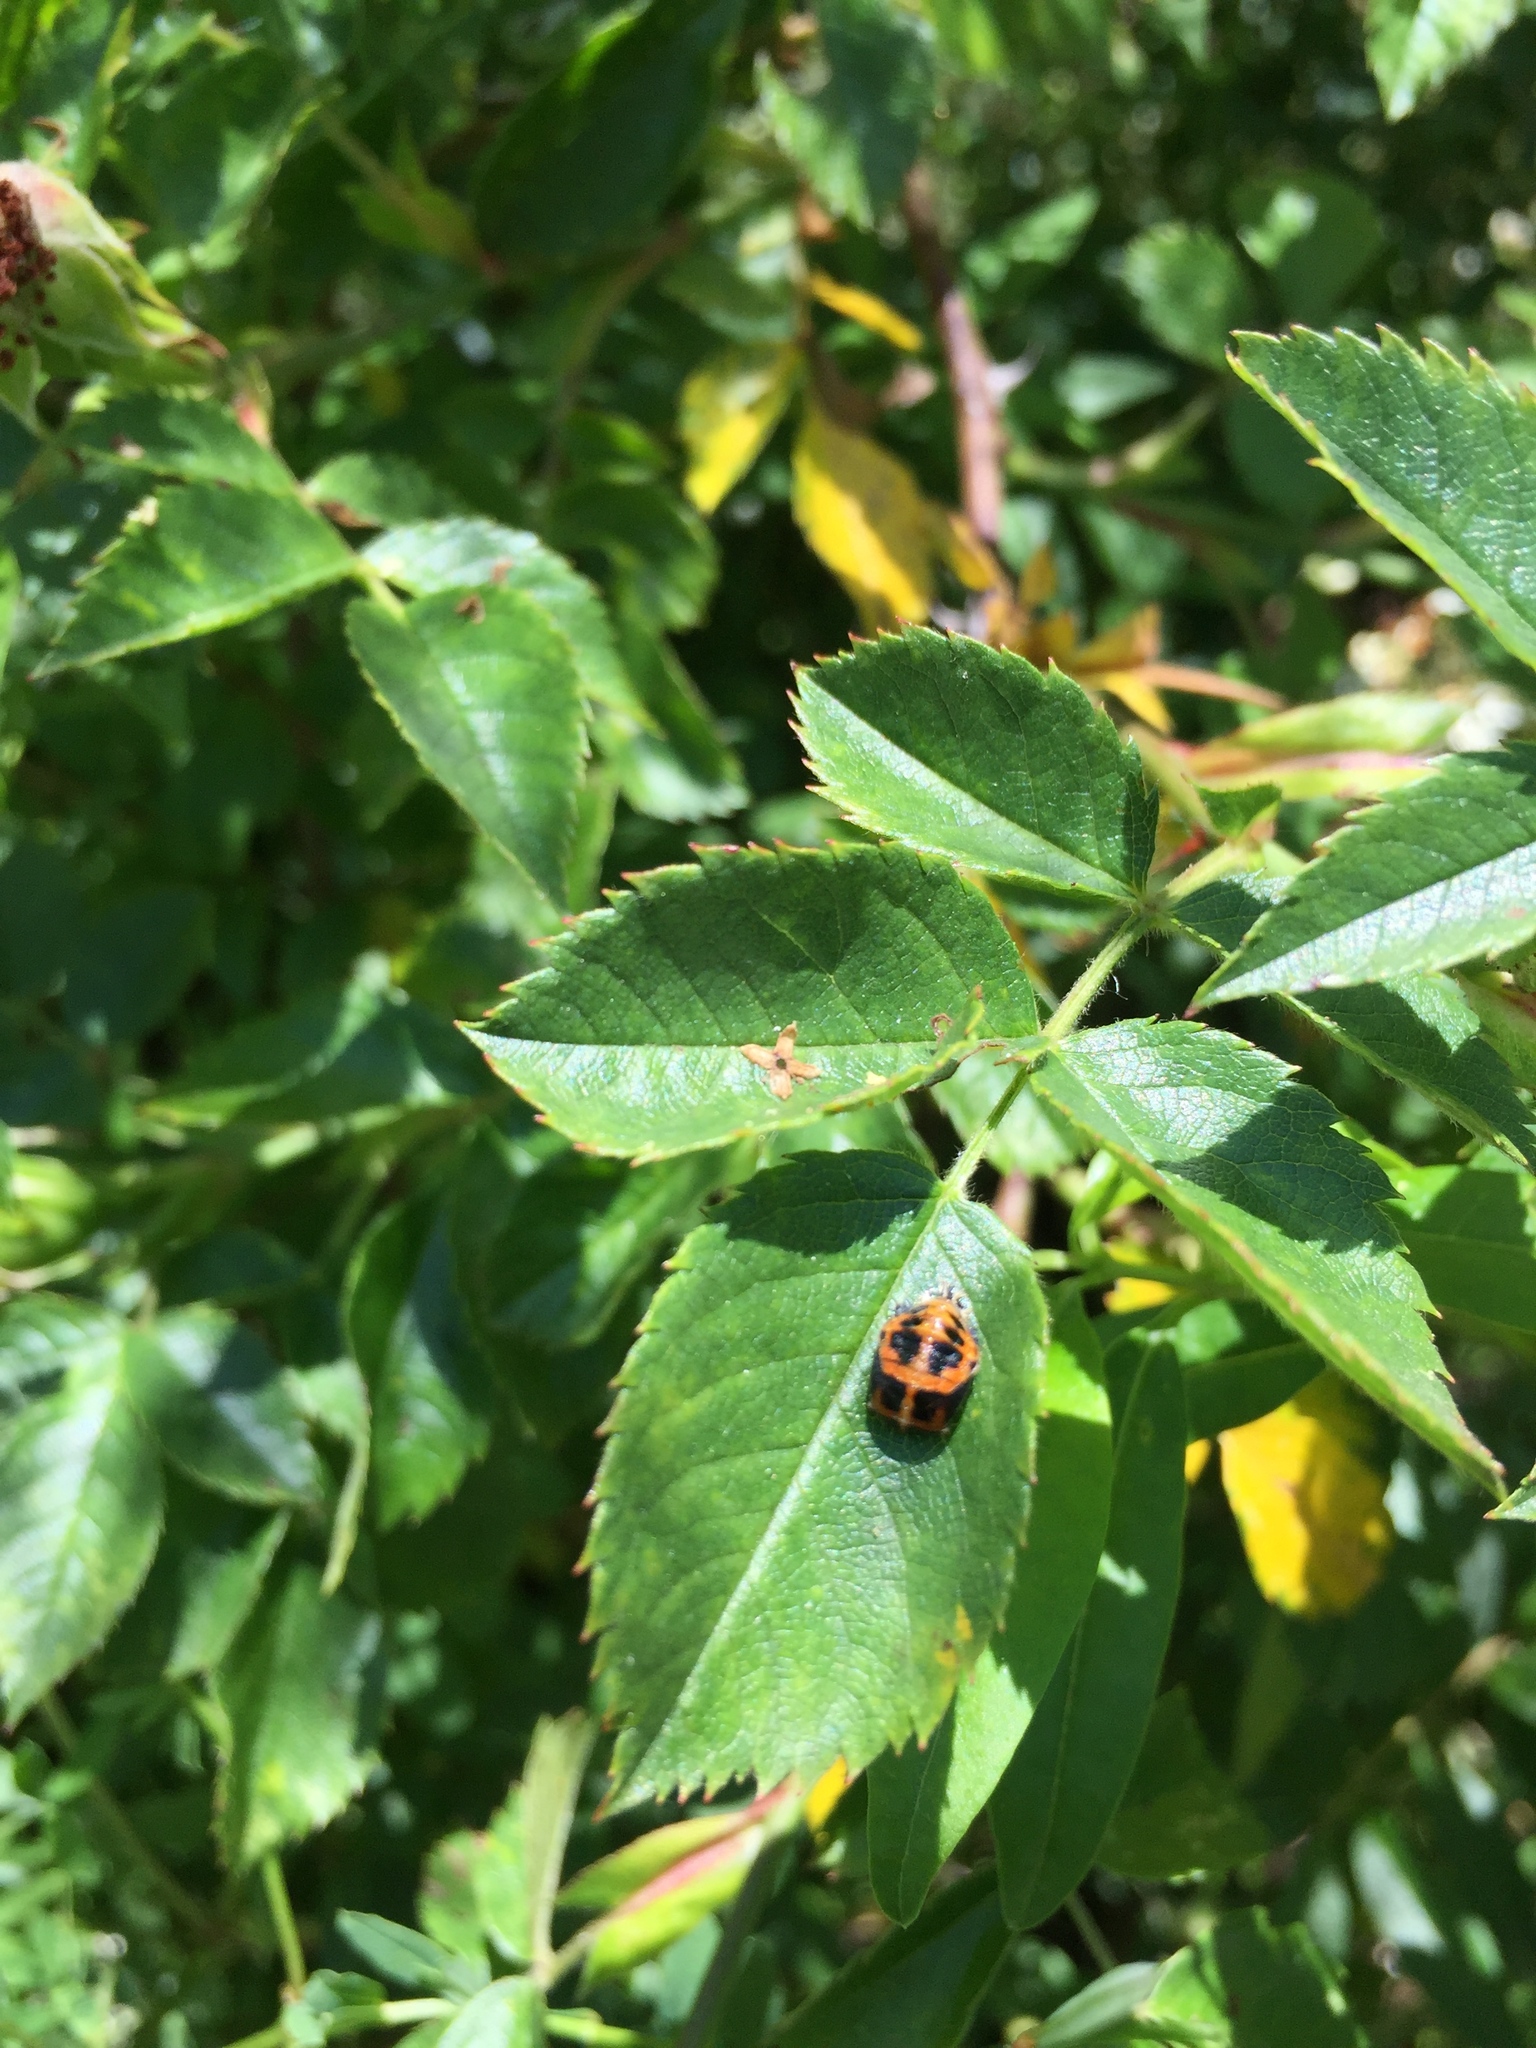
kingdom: Animalia
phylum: Arthropoda
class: Insecta
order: Coleoptera
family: Coccinellidae
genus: Harmonia
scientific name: Harmonia axyridis
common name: Harlequin ladybird
